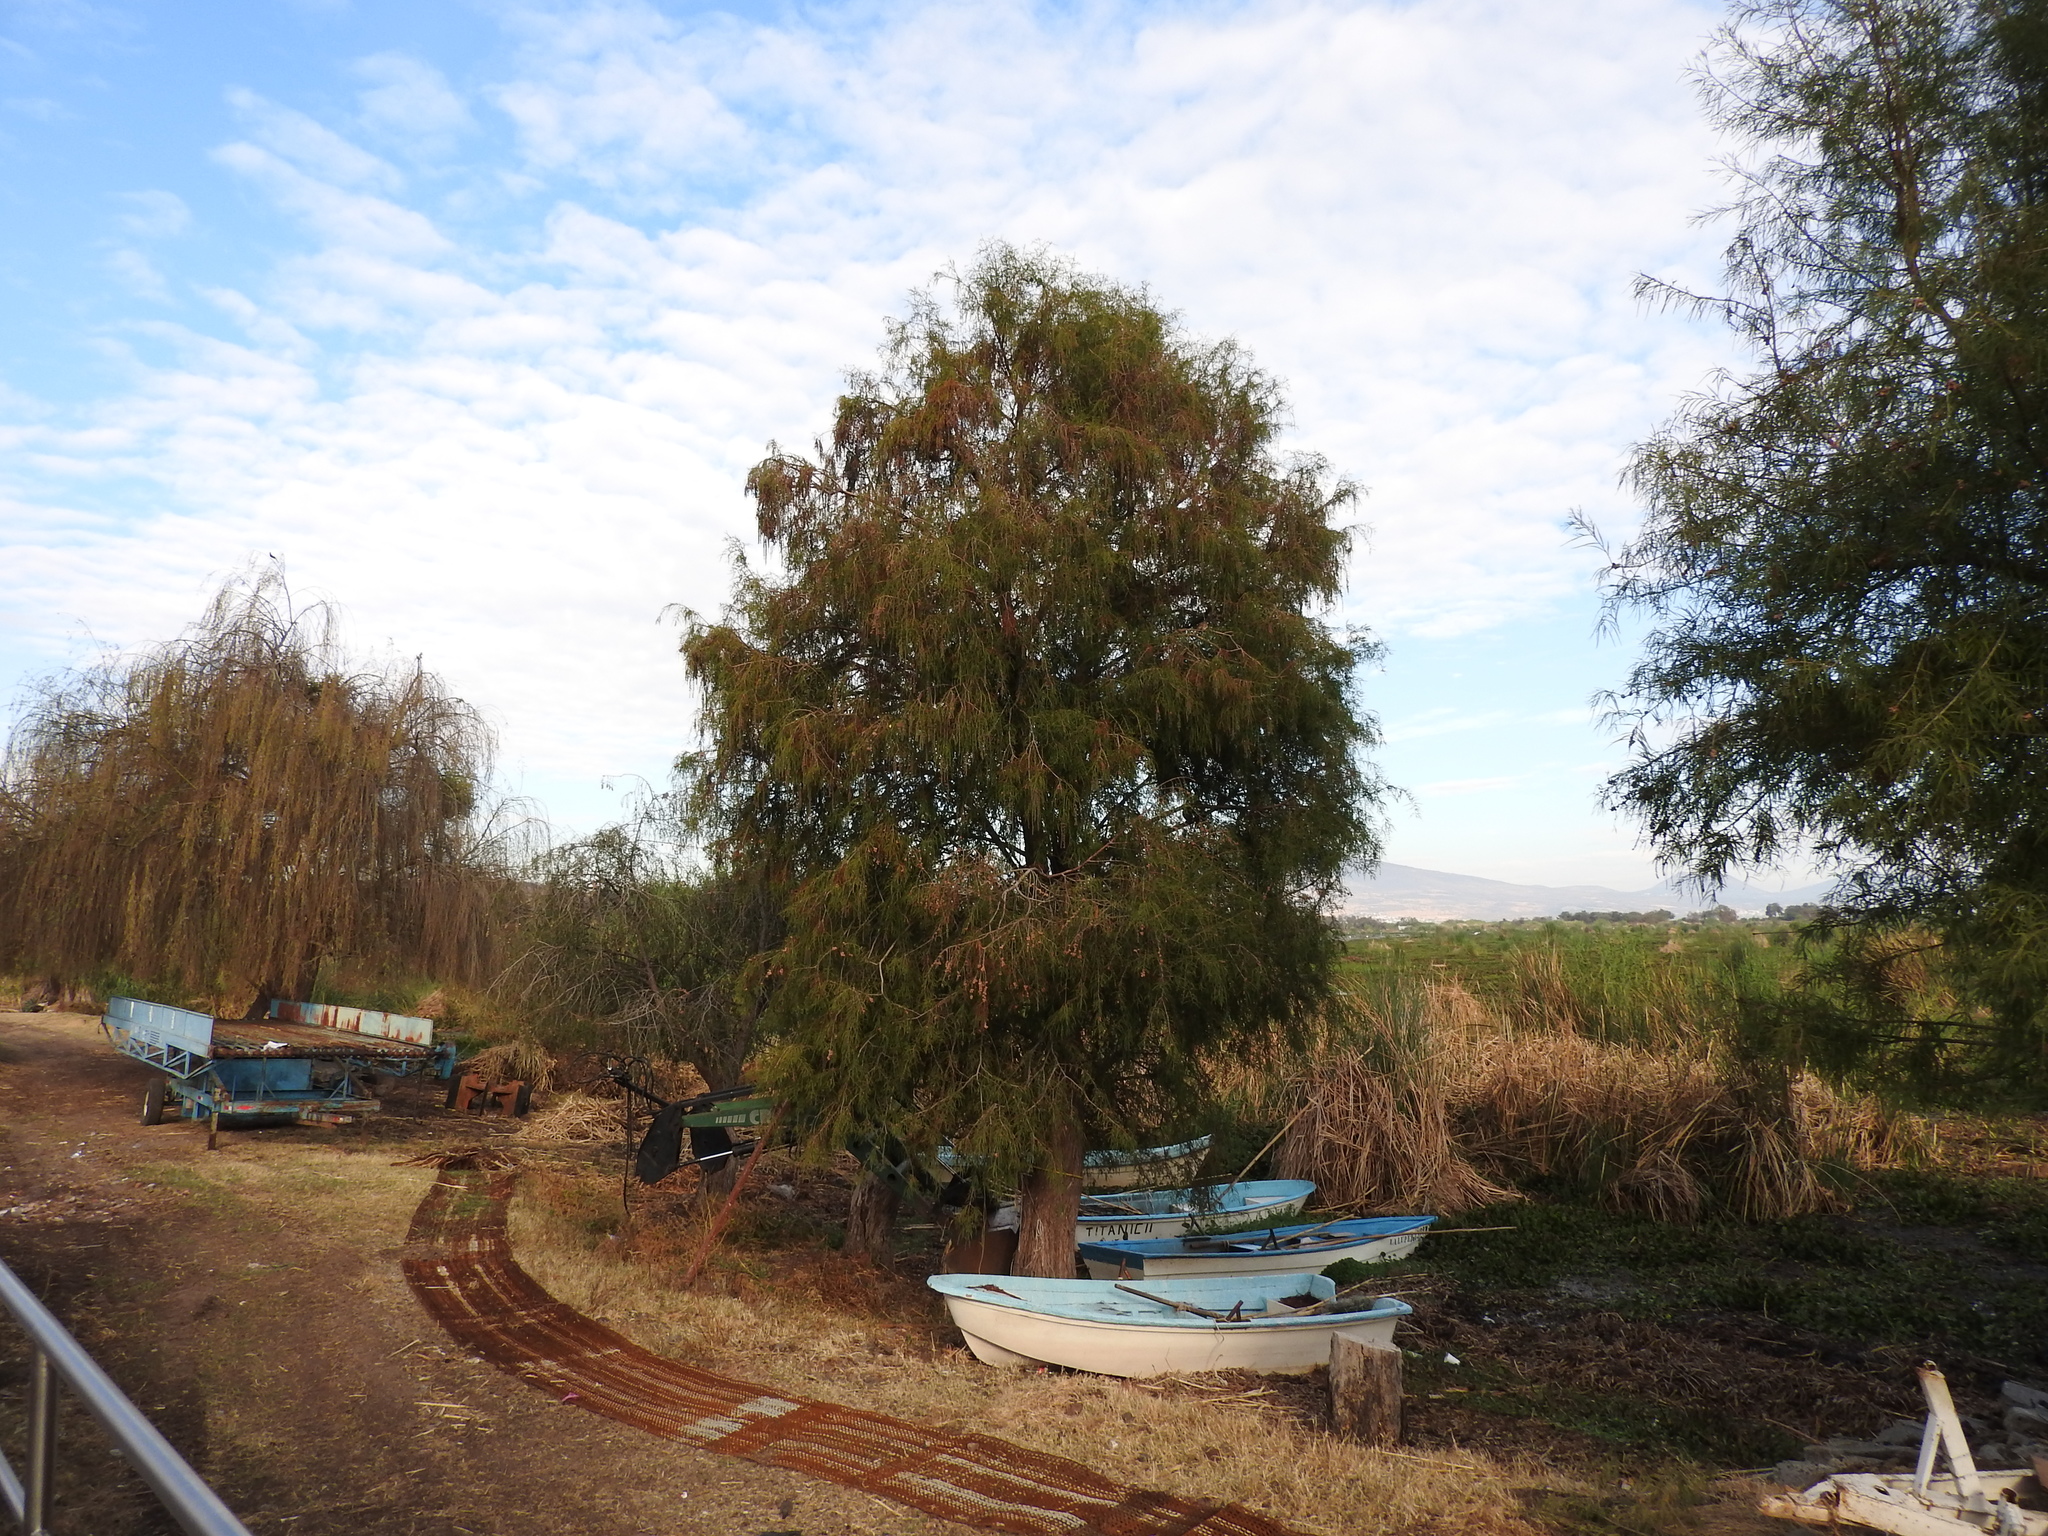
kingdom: Plantae
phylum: Tracheophyta
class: Pinopsida
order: Pinales
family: Cupressaceae
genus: Taxodium
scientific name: Taxodium mucronatum
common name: Montezume bald cypress
